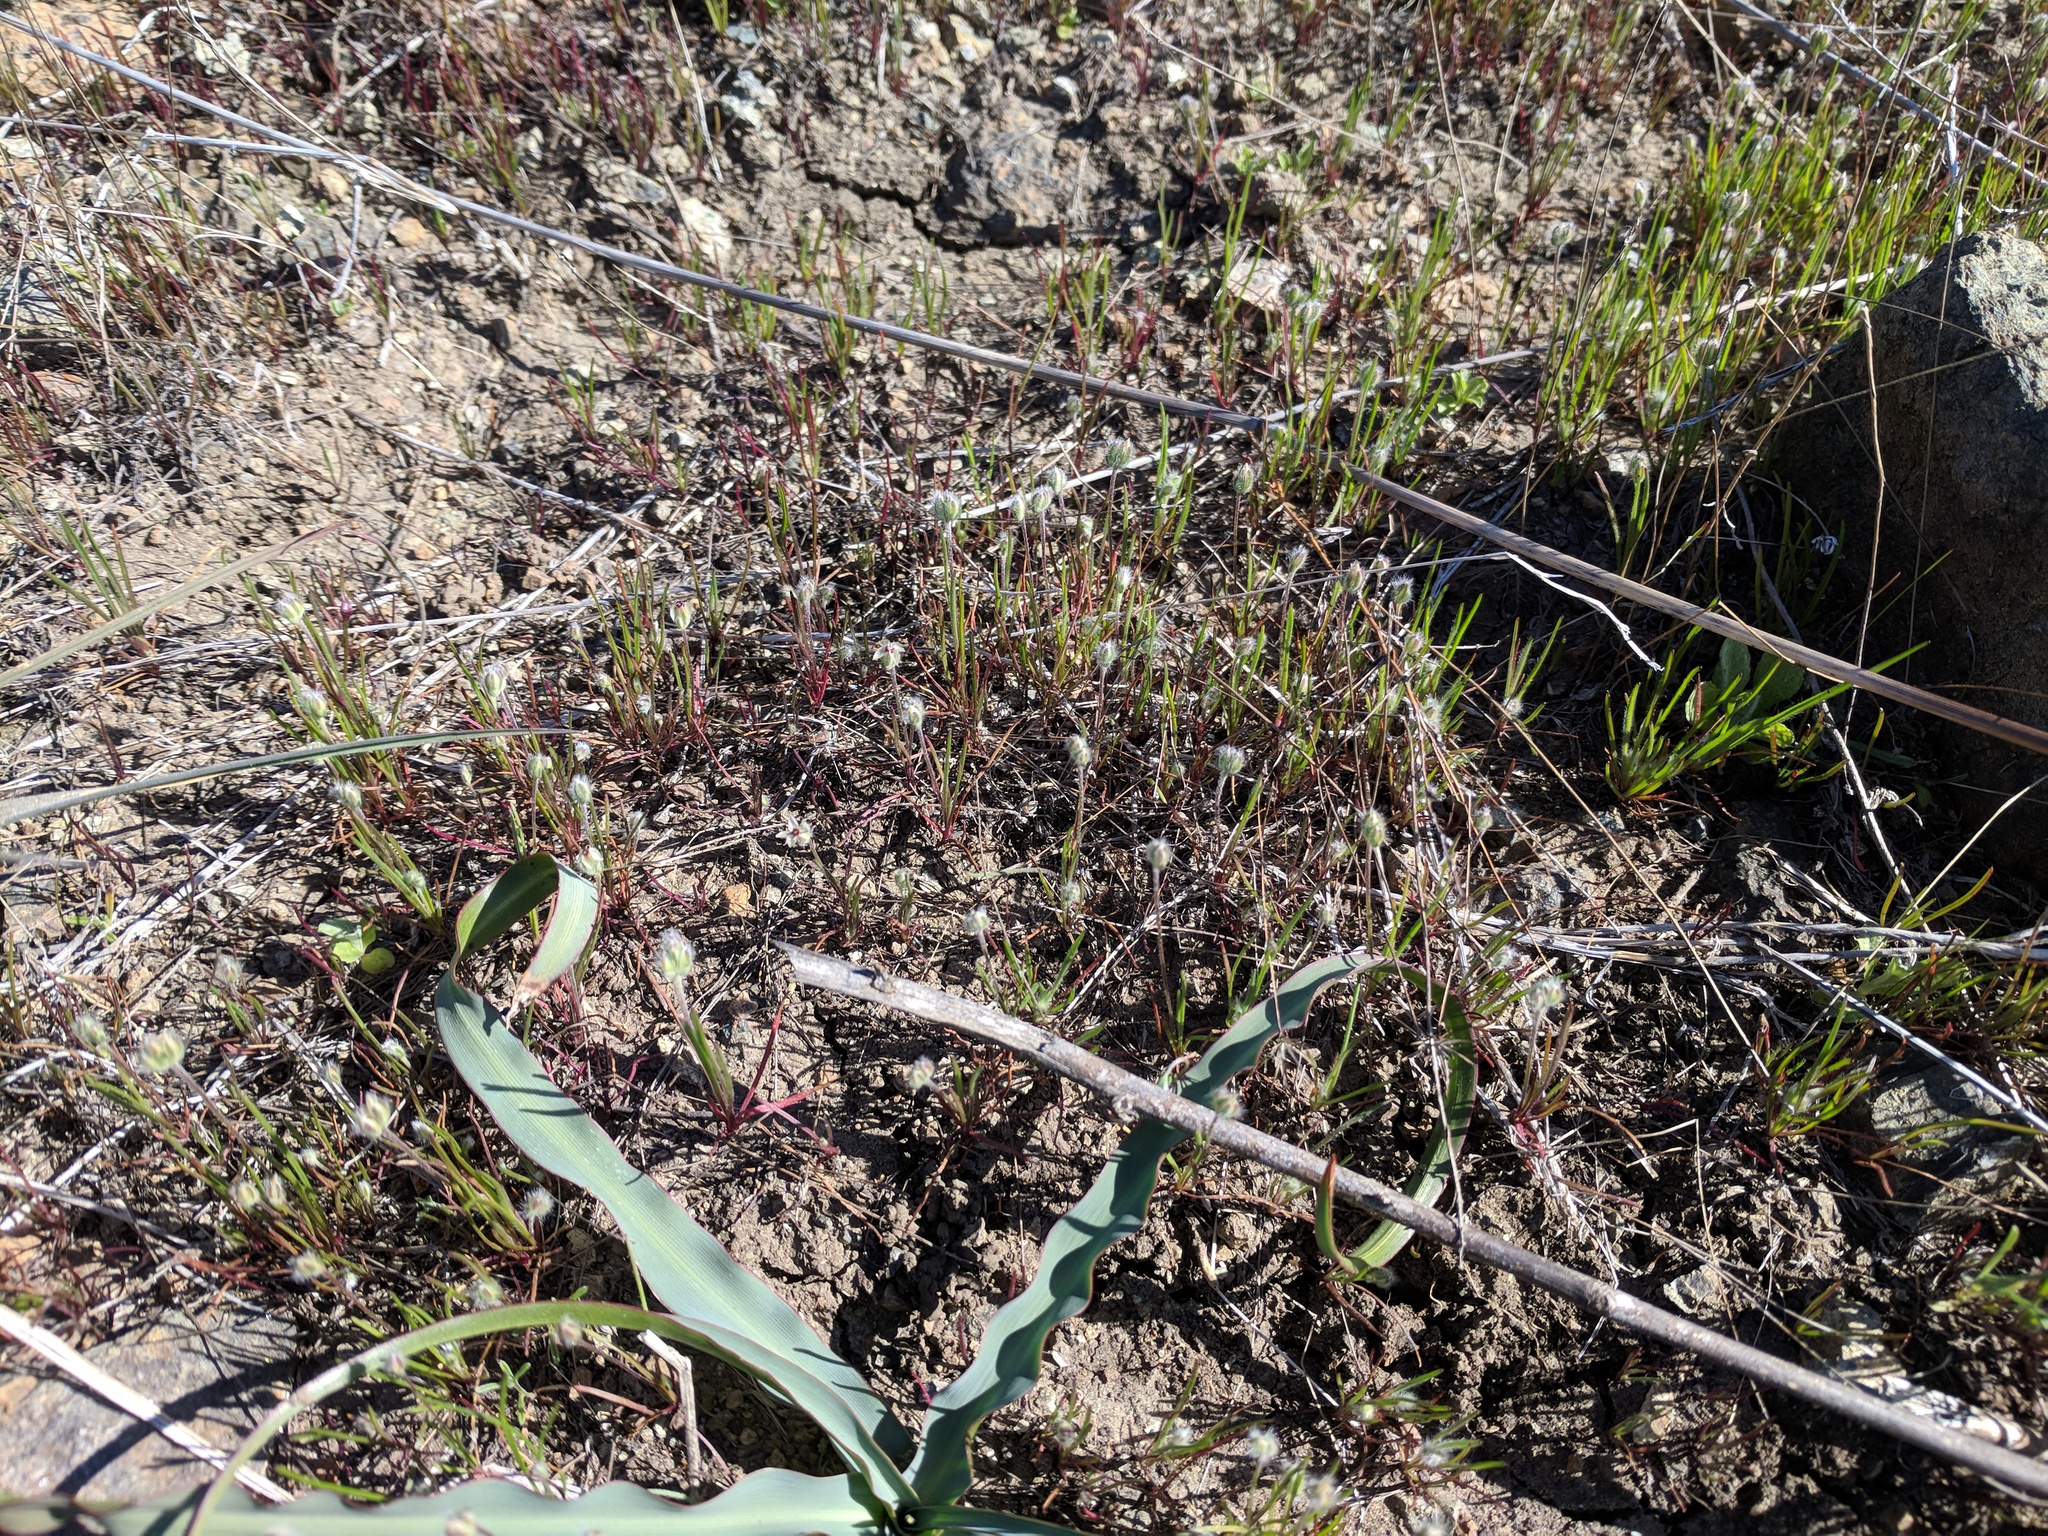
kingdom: Plantae
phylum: Tracheophyta
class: Magnoliopsida
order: Lamiales
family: Plantaginaceae
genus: Plantago
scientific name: Plantago erecta
